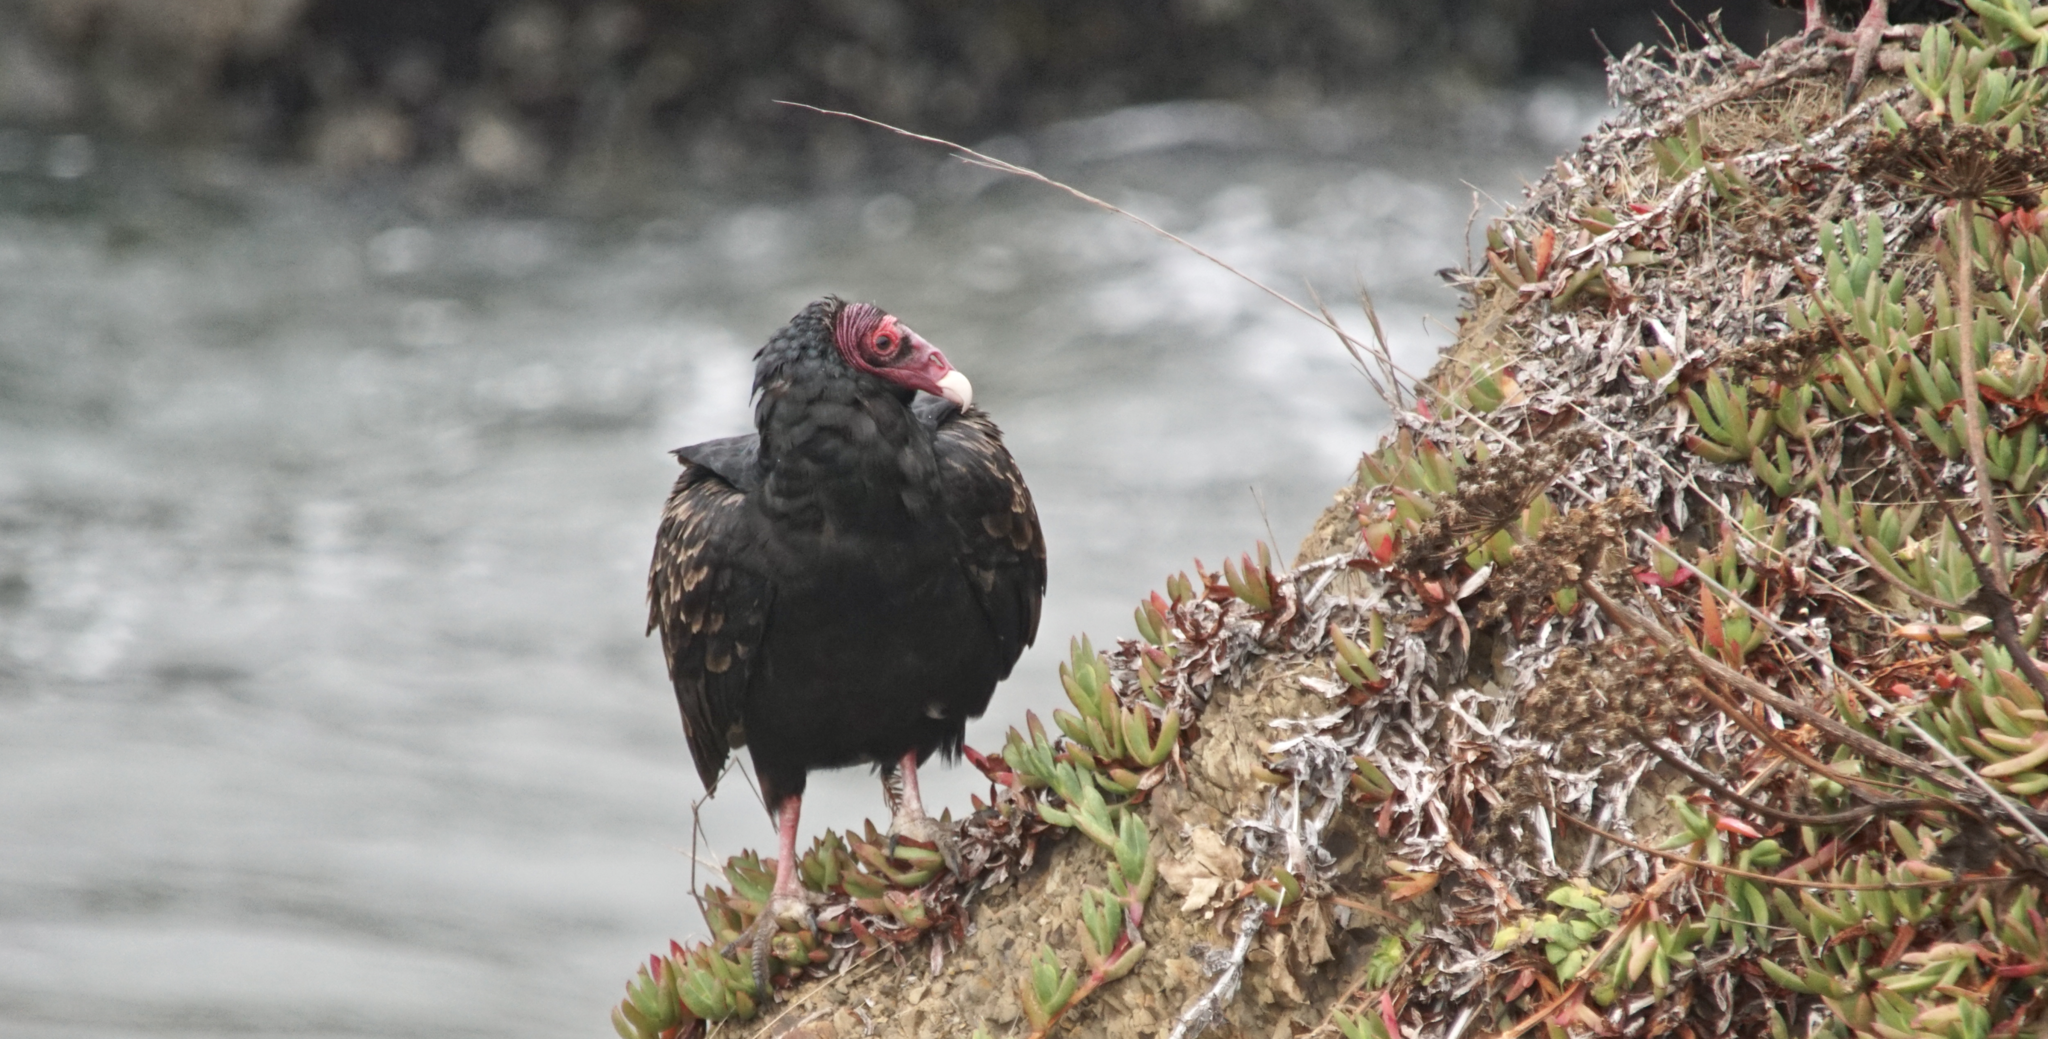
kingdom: Animalia
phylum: Chordata
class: Aves
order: Accipitriformes
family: Cathartidae
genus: Cathartes
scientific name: Cathartes aura
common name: Turkey vulture
